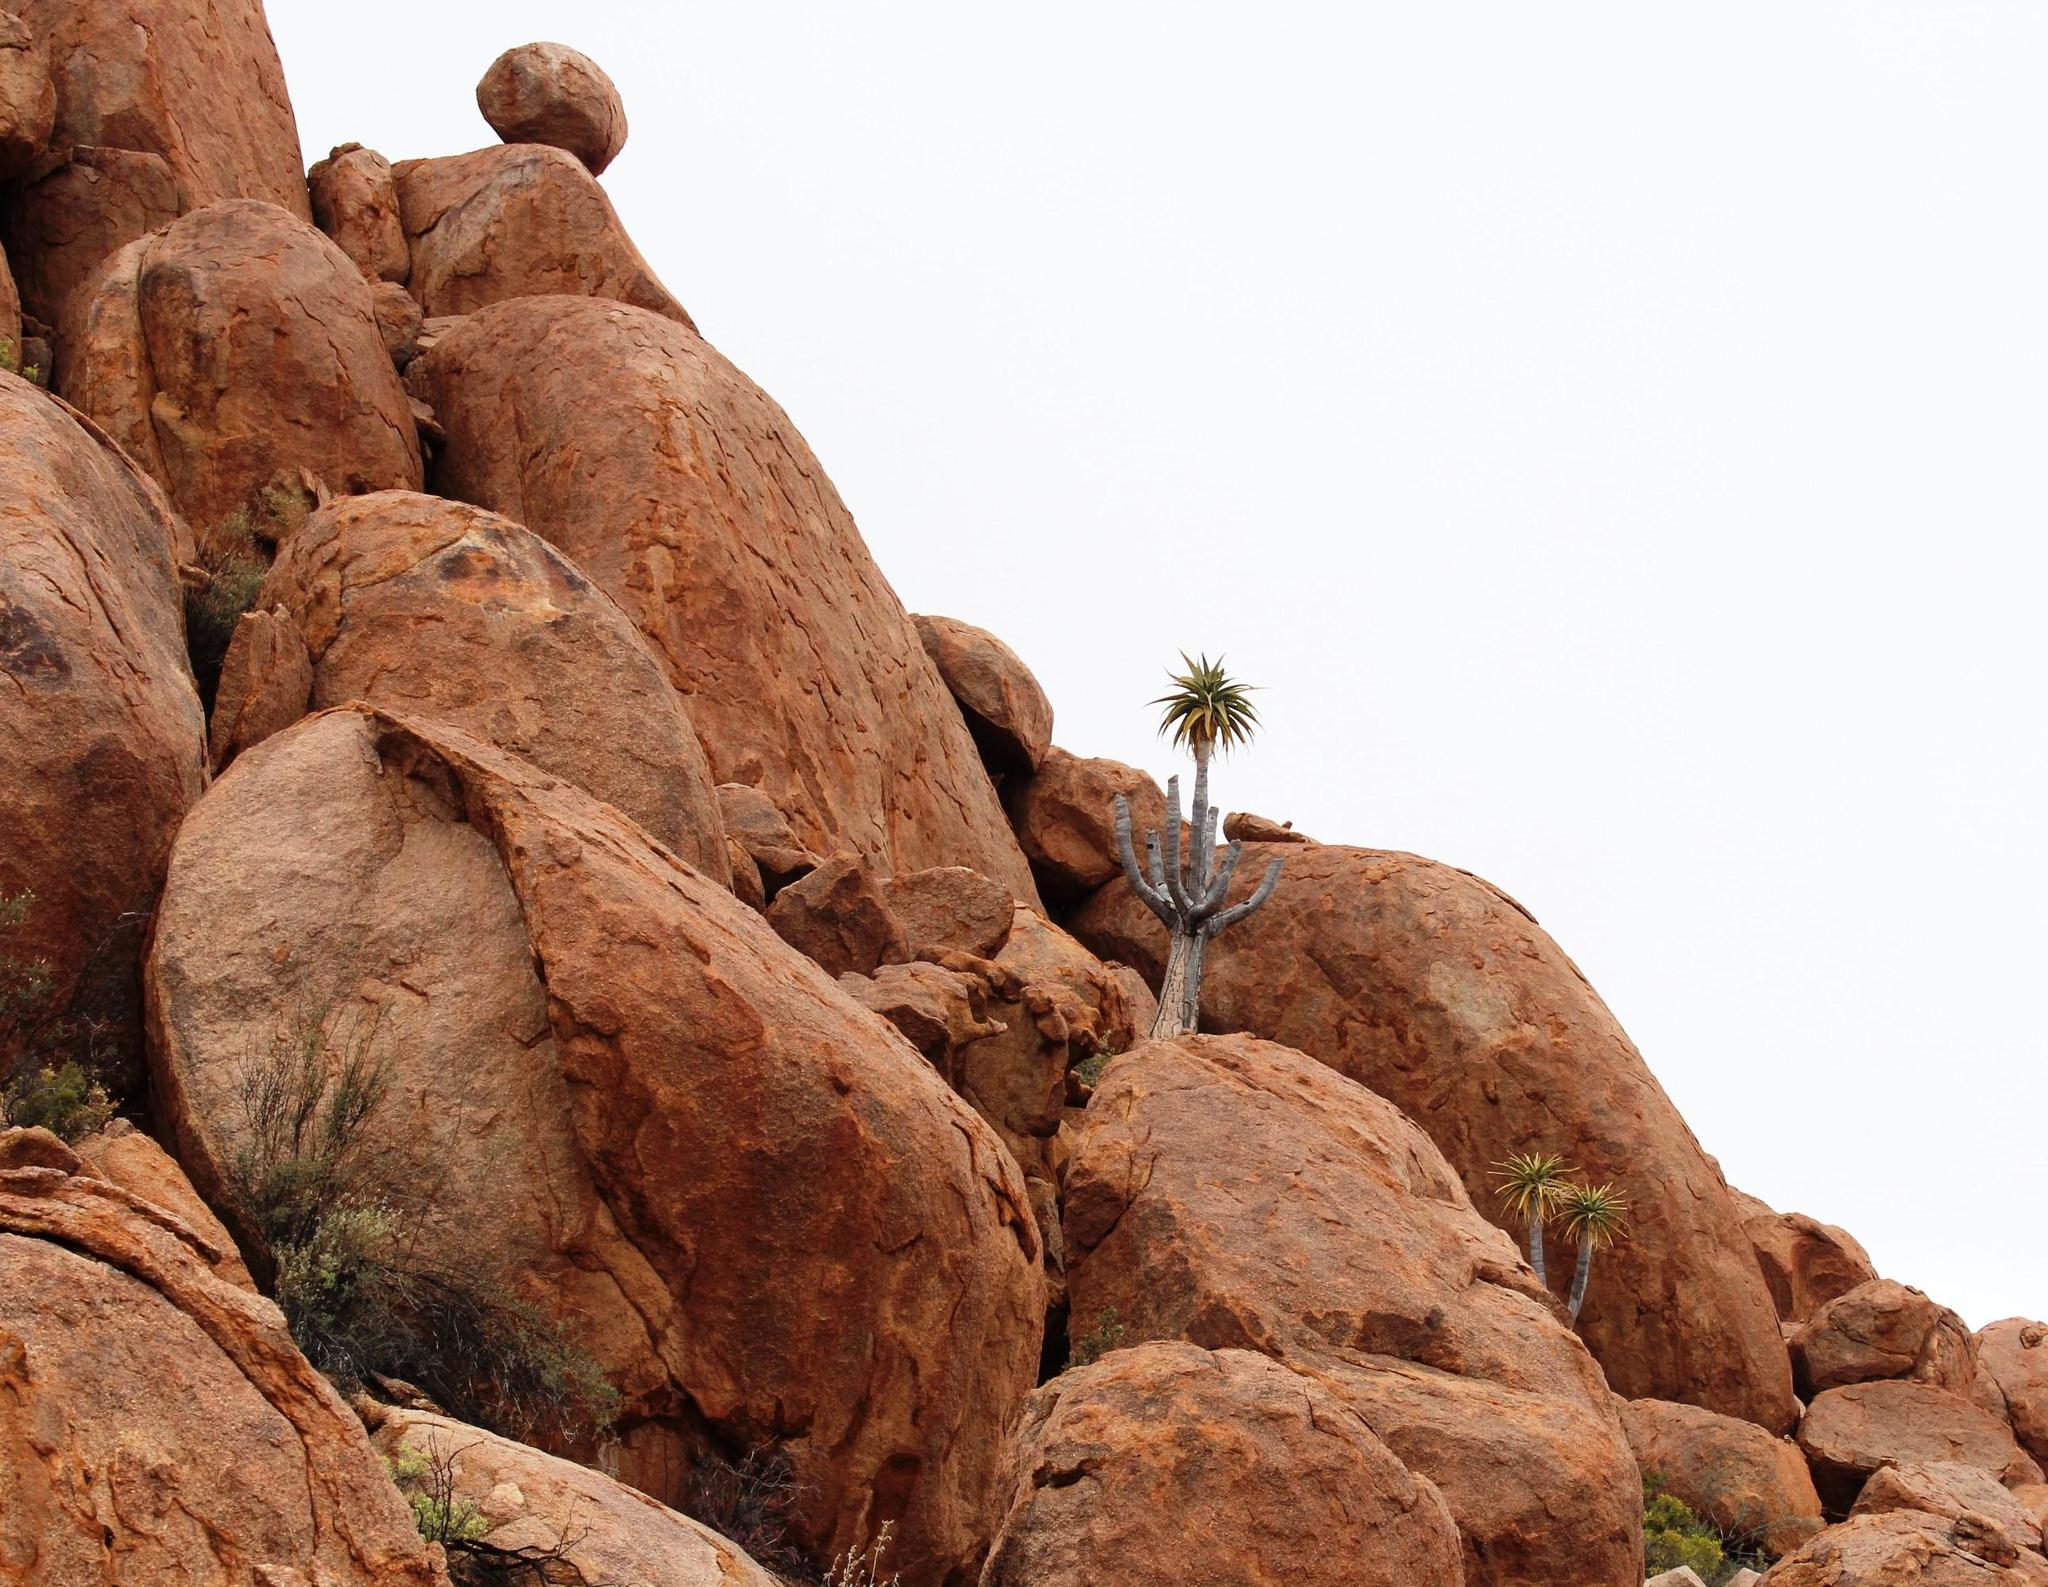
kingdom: Plantae
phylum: Tracheophyta
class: Liliopsida
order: Asparagales
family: Asphodelaceae
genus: Aloidendron
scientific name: Aloidendron dichotomum
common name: Quiver tree
